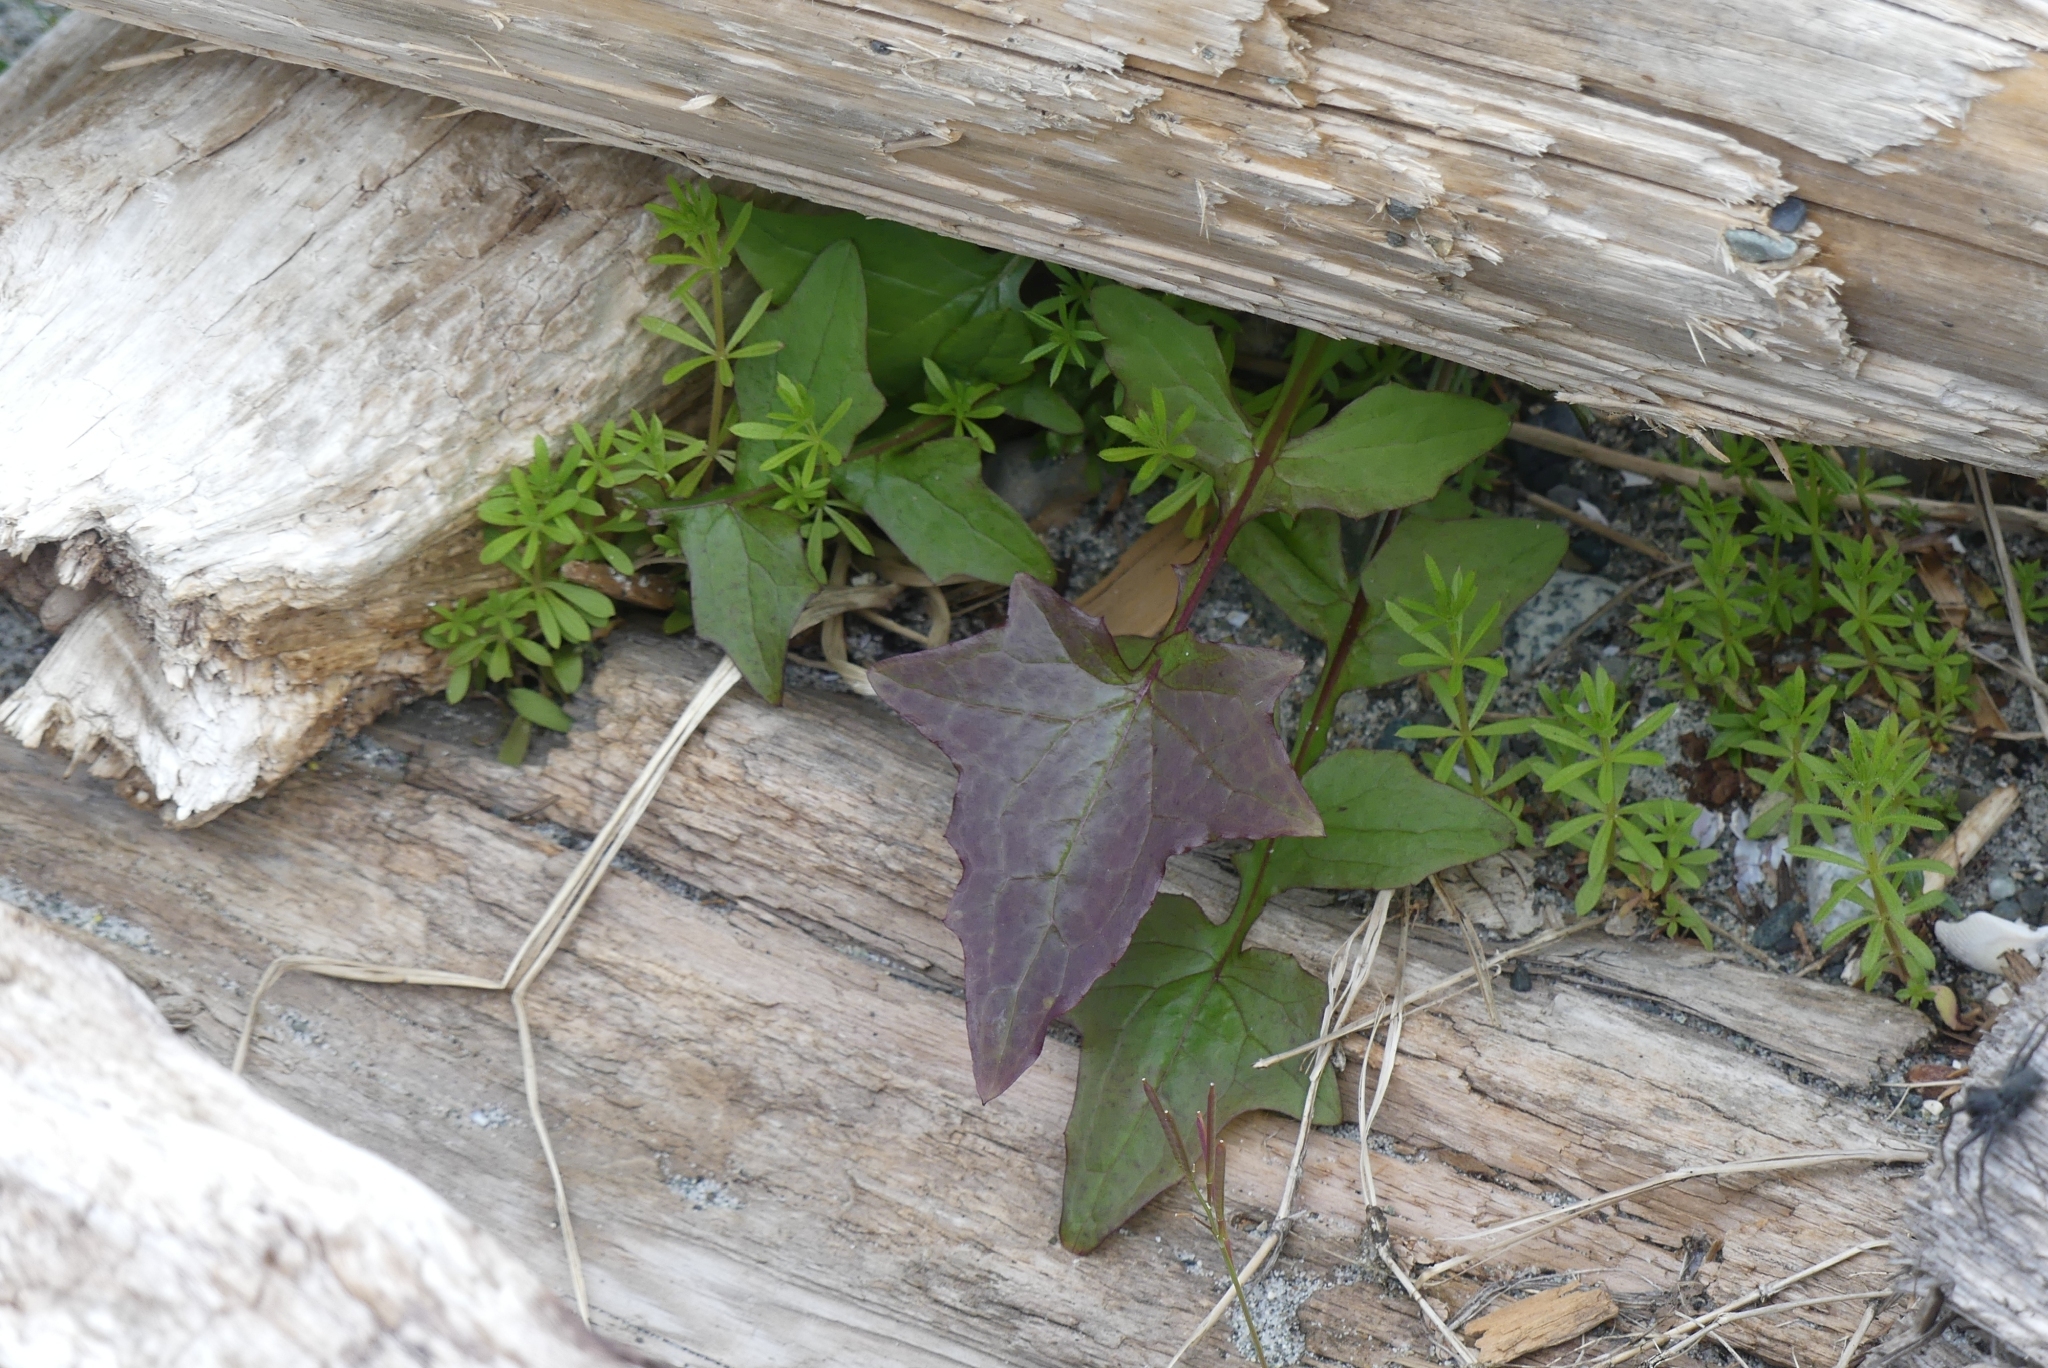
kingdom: Plantae
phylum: Tracheophyta
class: Magnoliopsida
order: Asterales
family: Asteraceae
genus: Mycelis
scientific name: Mycelis muralis
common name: Wall lettuce
